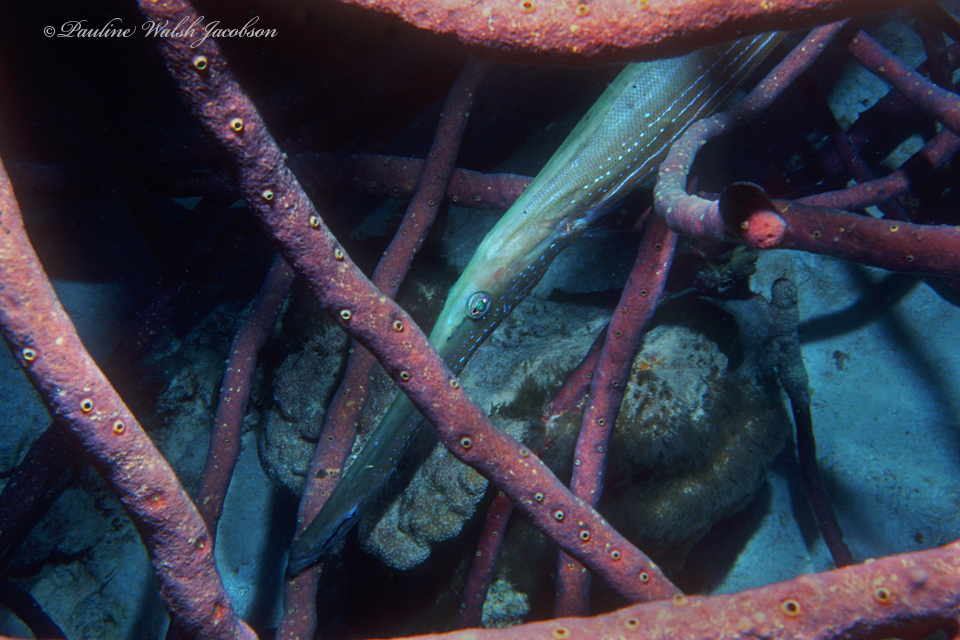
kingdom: Animalia
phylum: Chordata
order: Syngnathiformes
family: Aulostomidae
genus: Aulostomus
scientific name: Aulostomus maculatus
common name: West atlantic trumpetfish
